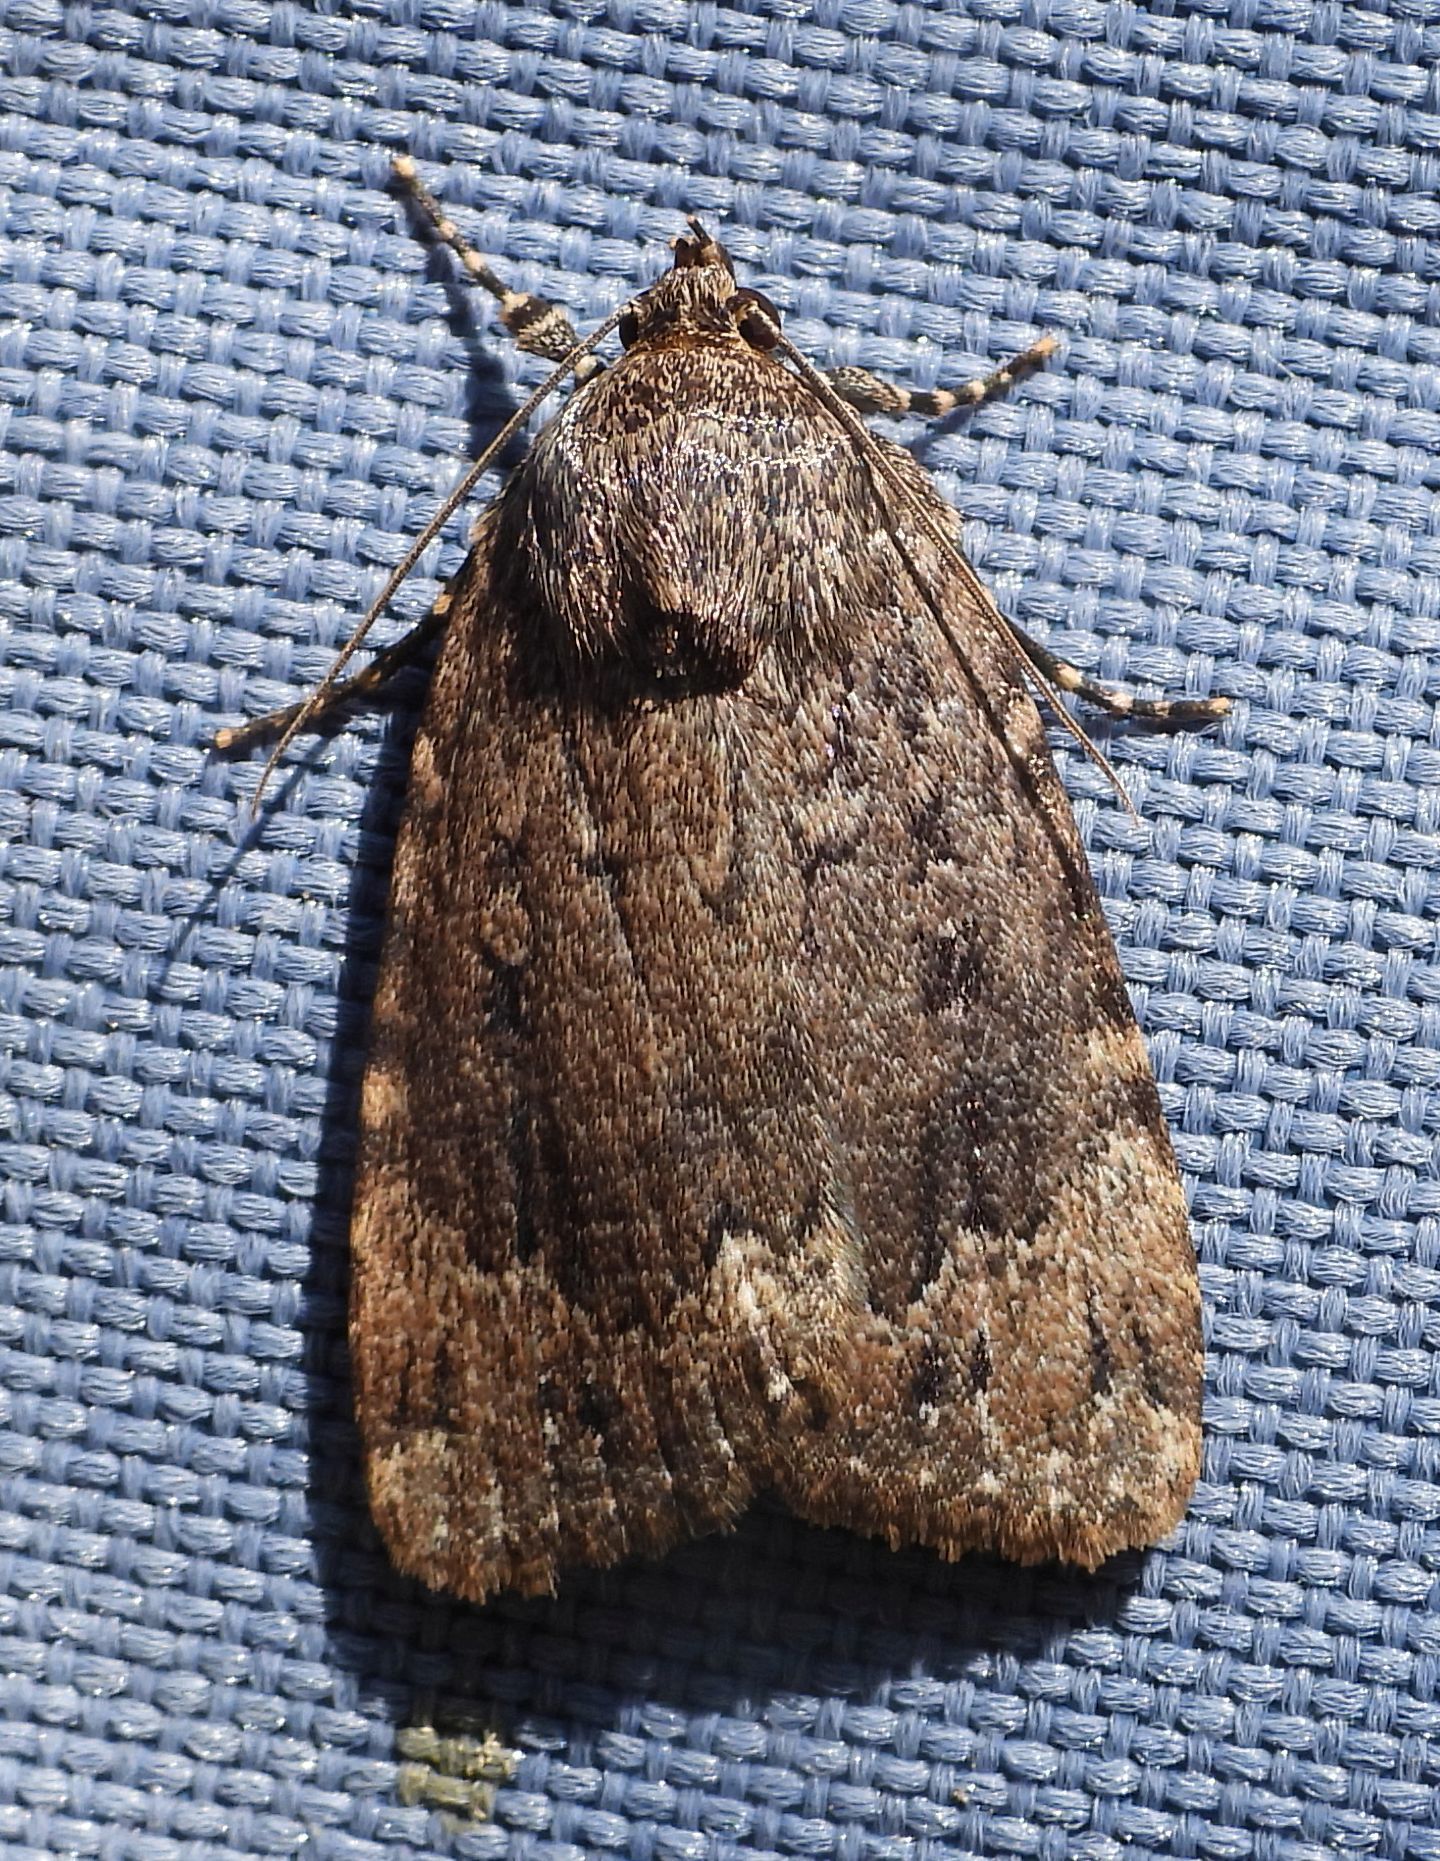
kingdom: Animalia
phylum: Arthropoda
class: Insecta
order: Lepidoptera
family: Noctuidae
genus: Amphipyra
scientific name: Amphipyra pyramidoides
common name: American copper underwing
